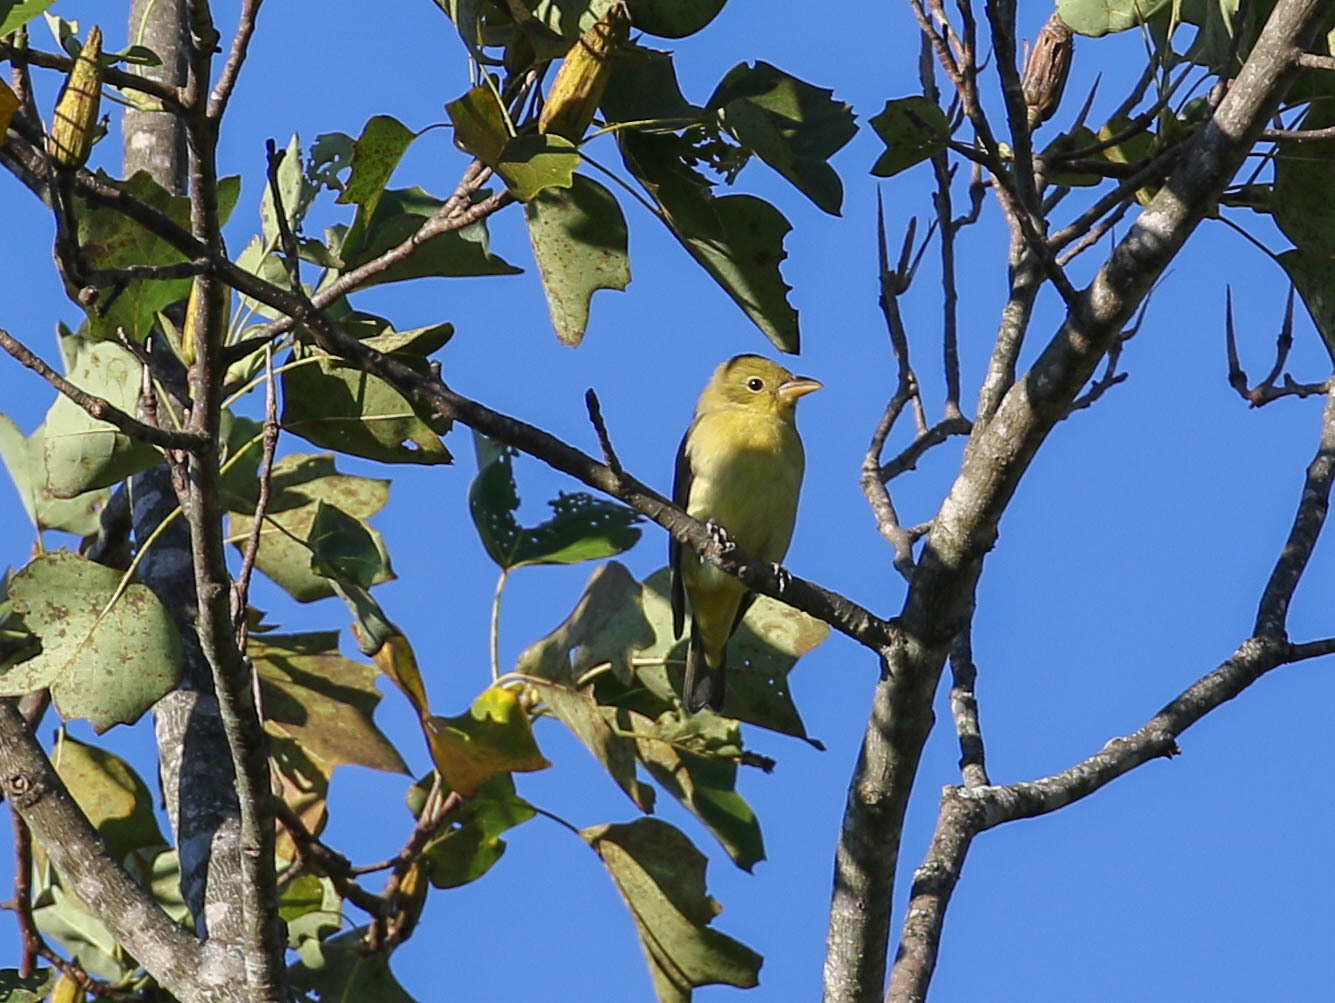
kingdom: Animalia
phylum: Chordata
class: Aves
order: Passeriformes
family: Cardinalidae
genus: Piranga
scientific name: Piranga olivacea
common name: Scarlet tanager
